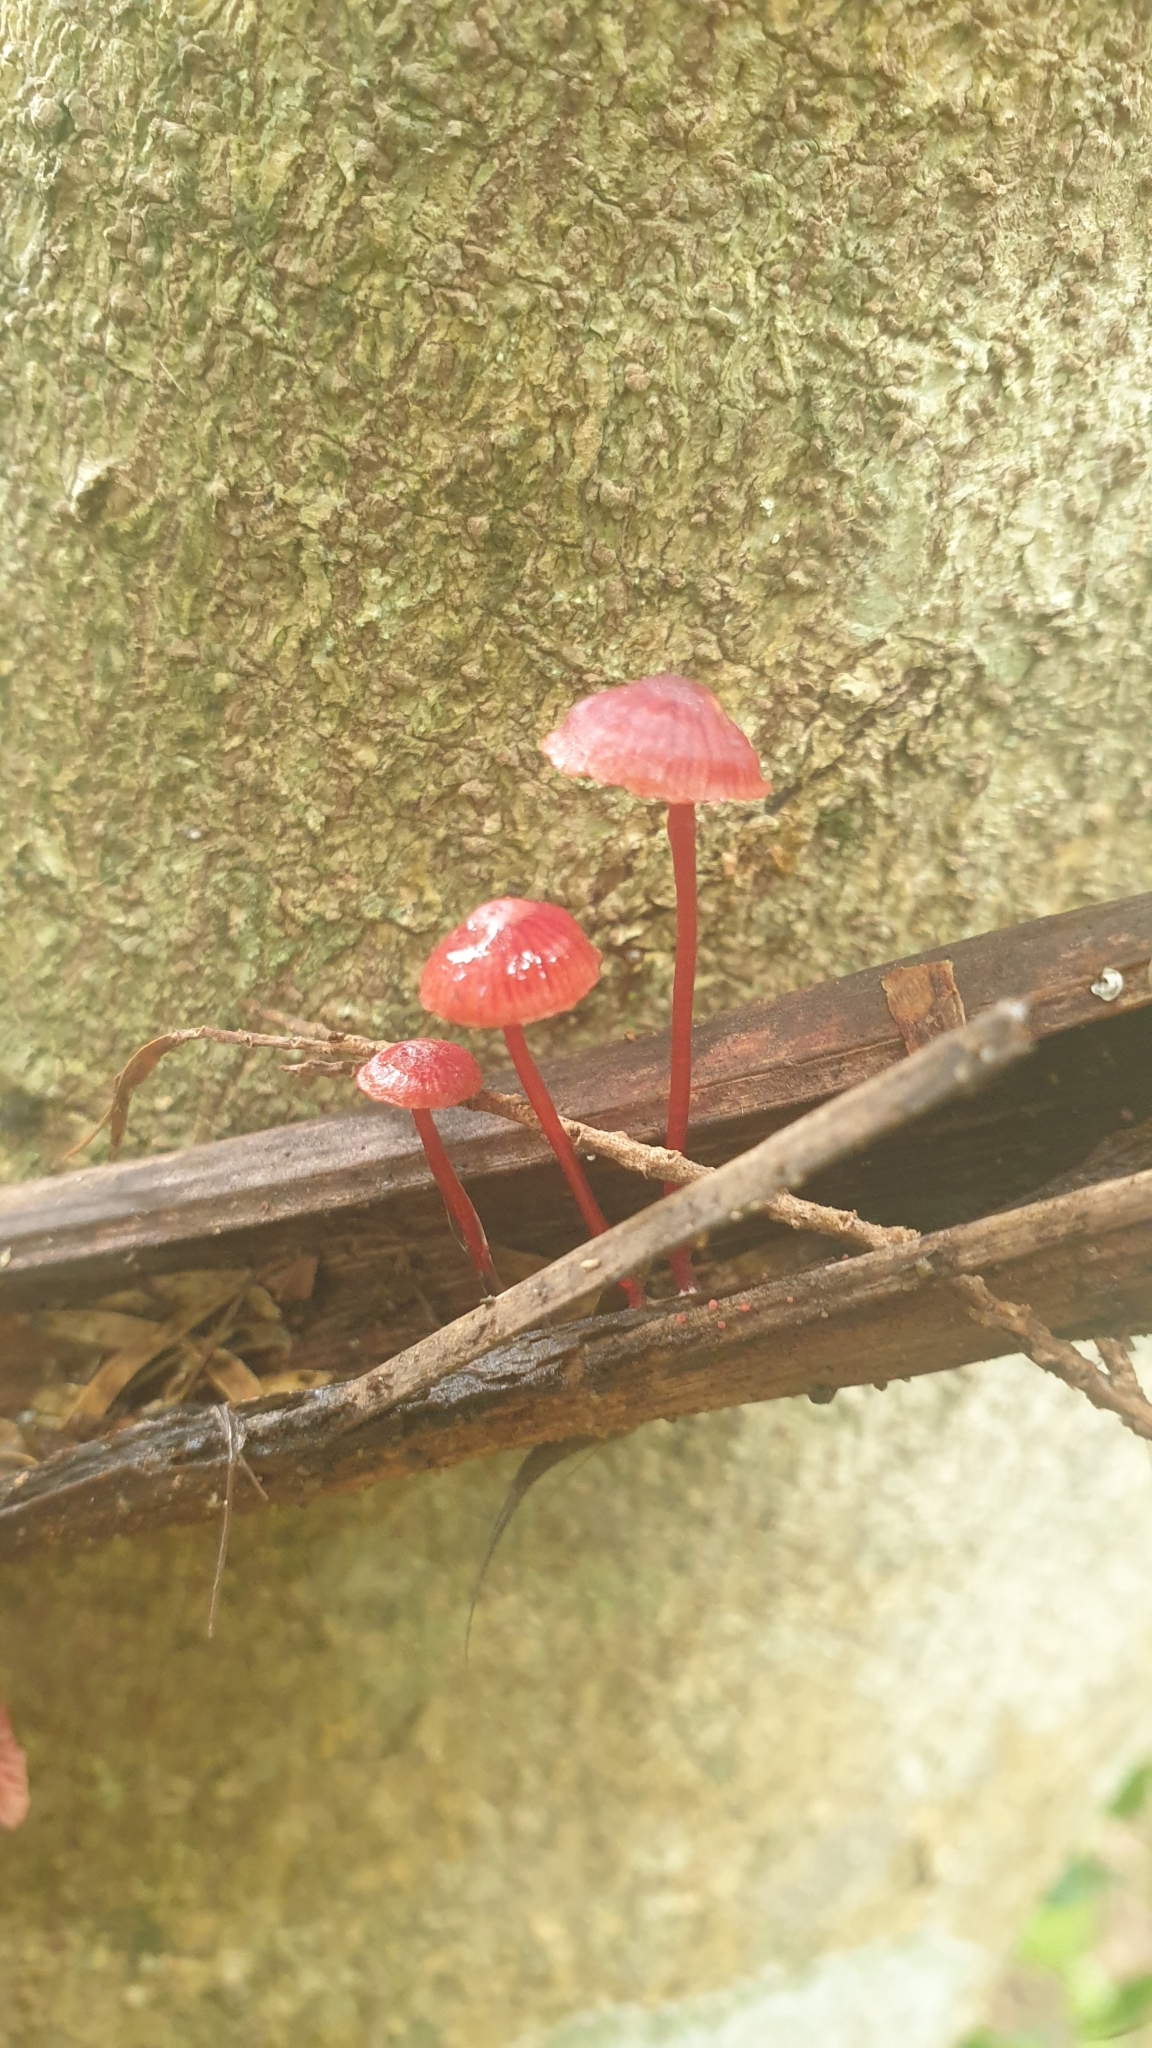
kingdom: Fungi
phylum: Basidiomycota
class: Agaricomycetes
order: Agaricales
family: Mycenaceae
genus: Cruentomycena
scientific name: Cruentomycena viscidocruenta
